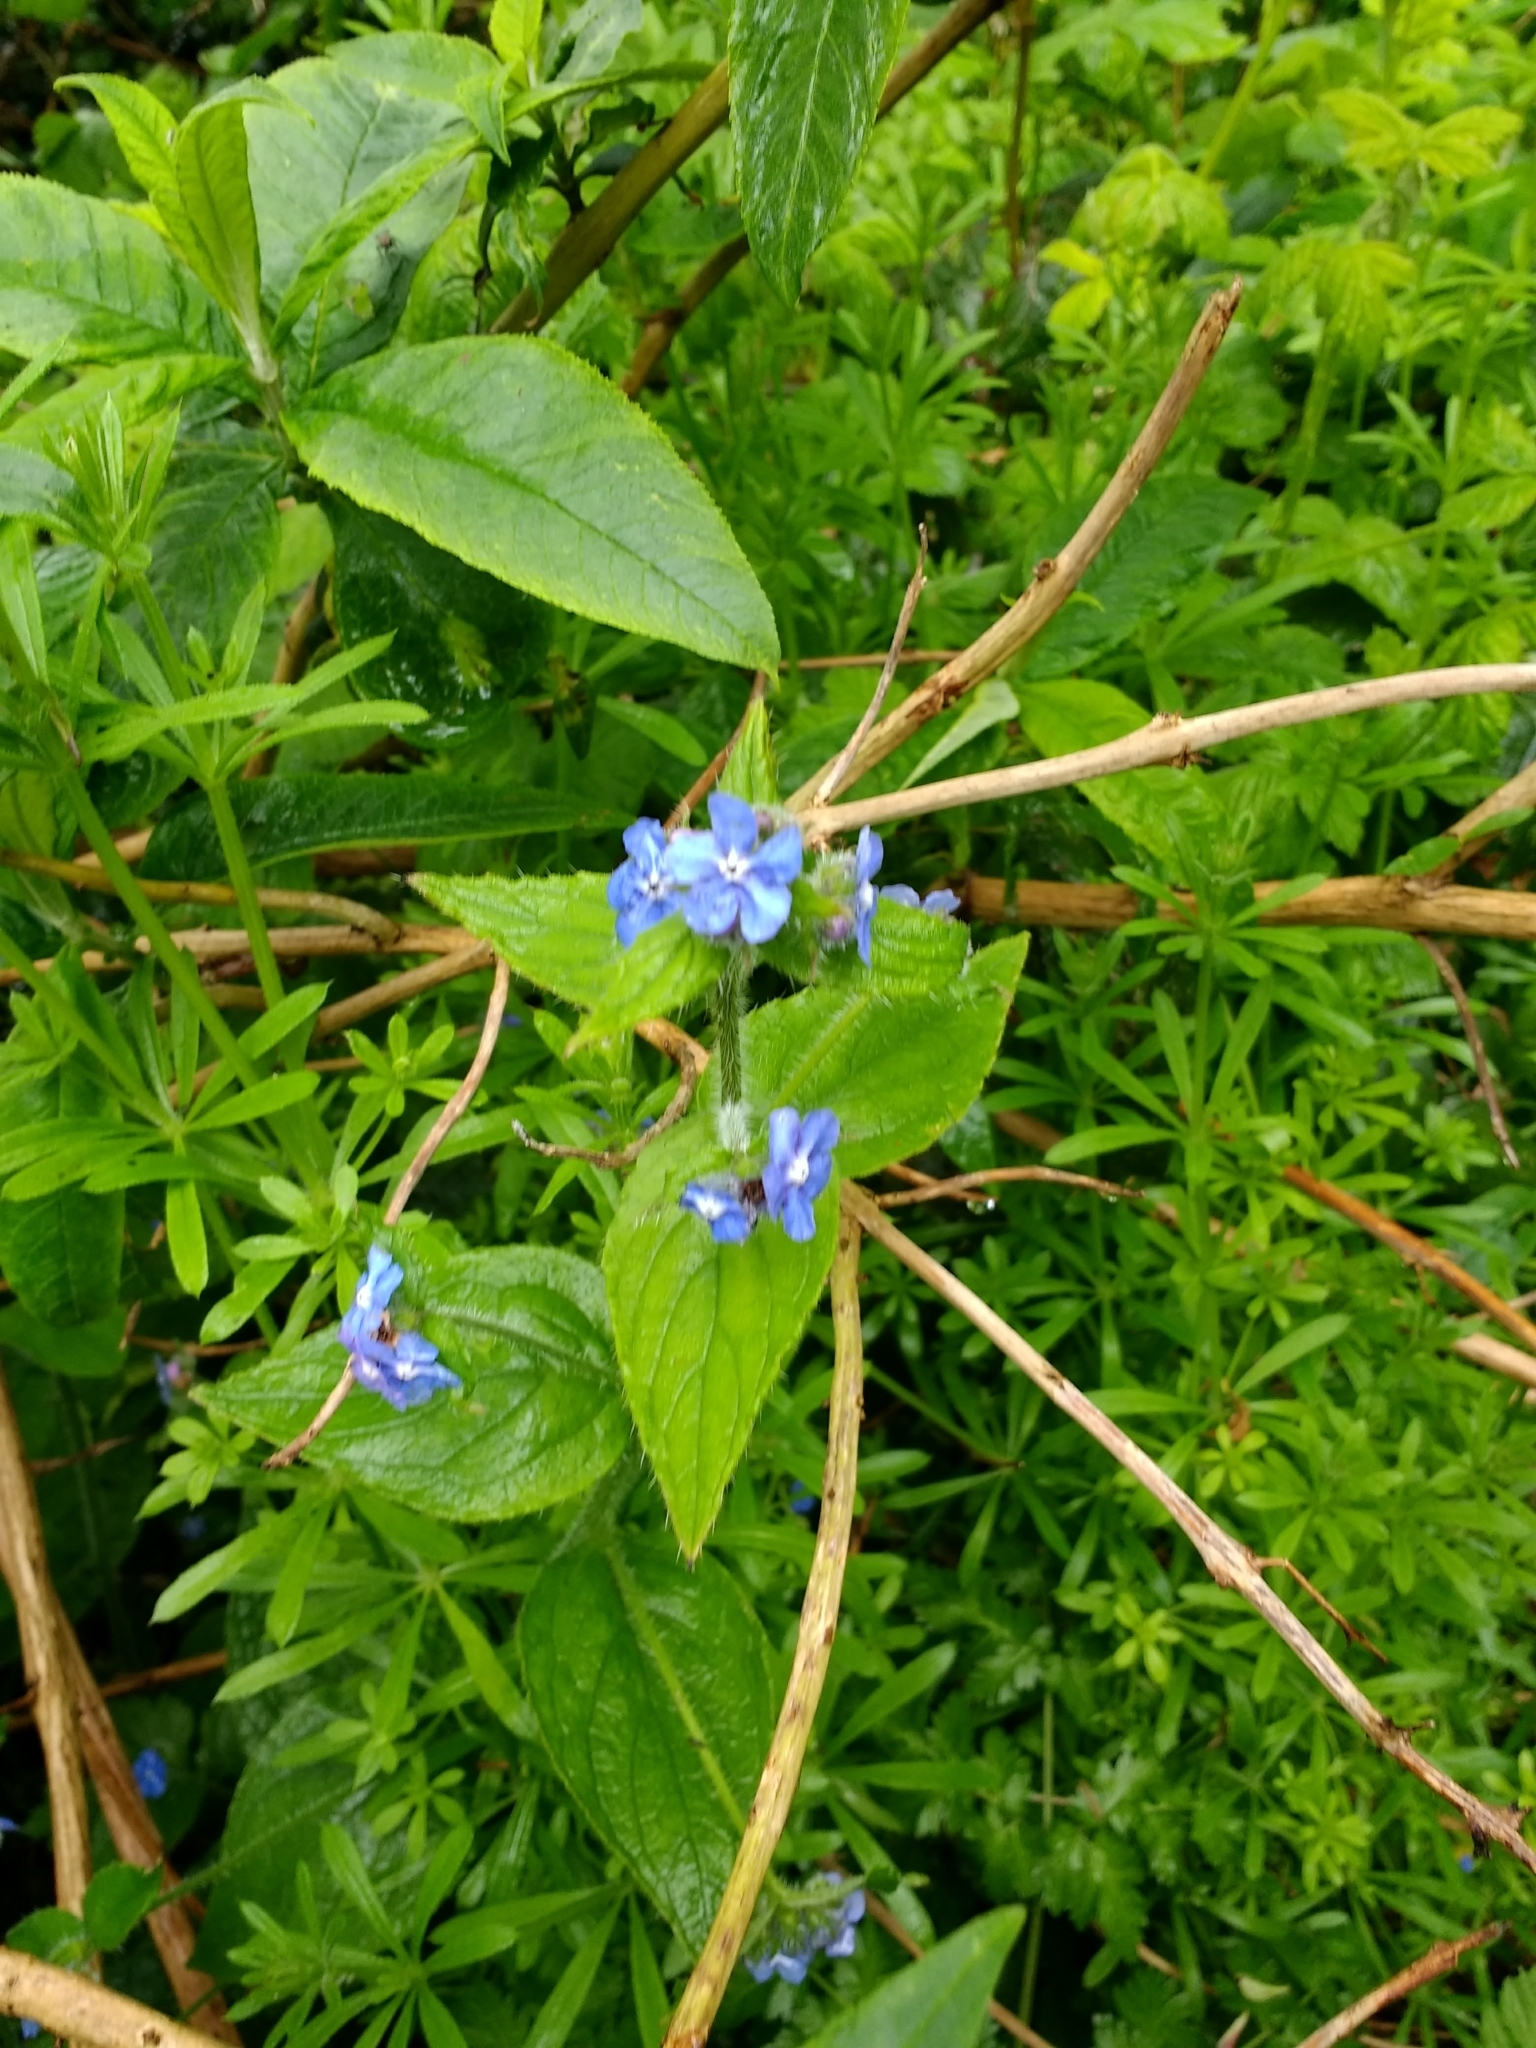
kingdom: Plantae
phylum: Tracheophyta
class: Magnoliopsida
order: Boraginales
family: Boraginaceae
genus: Pentaglottis
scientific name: Pentaglottis sempervirens
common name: Green alkanet
